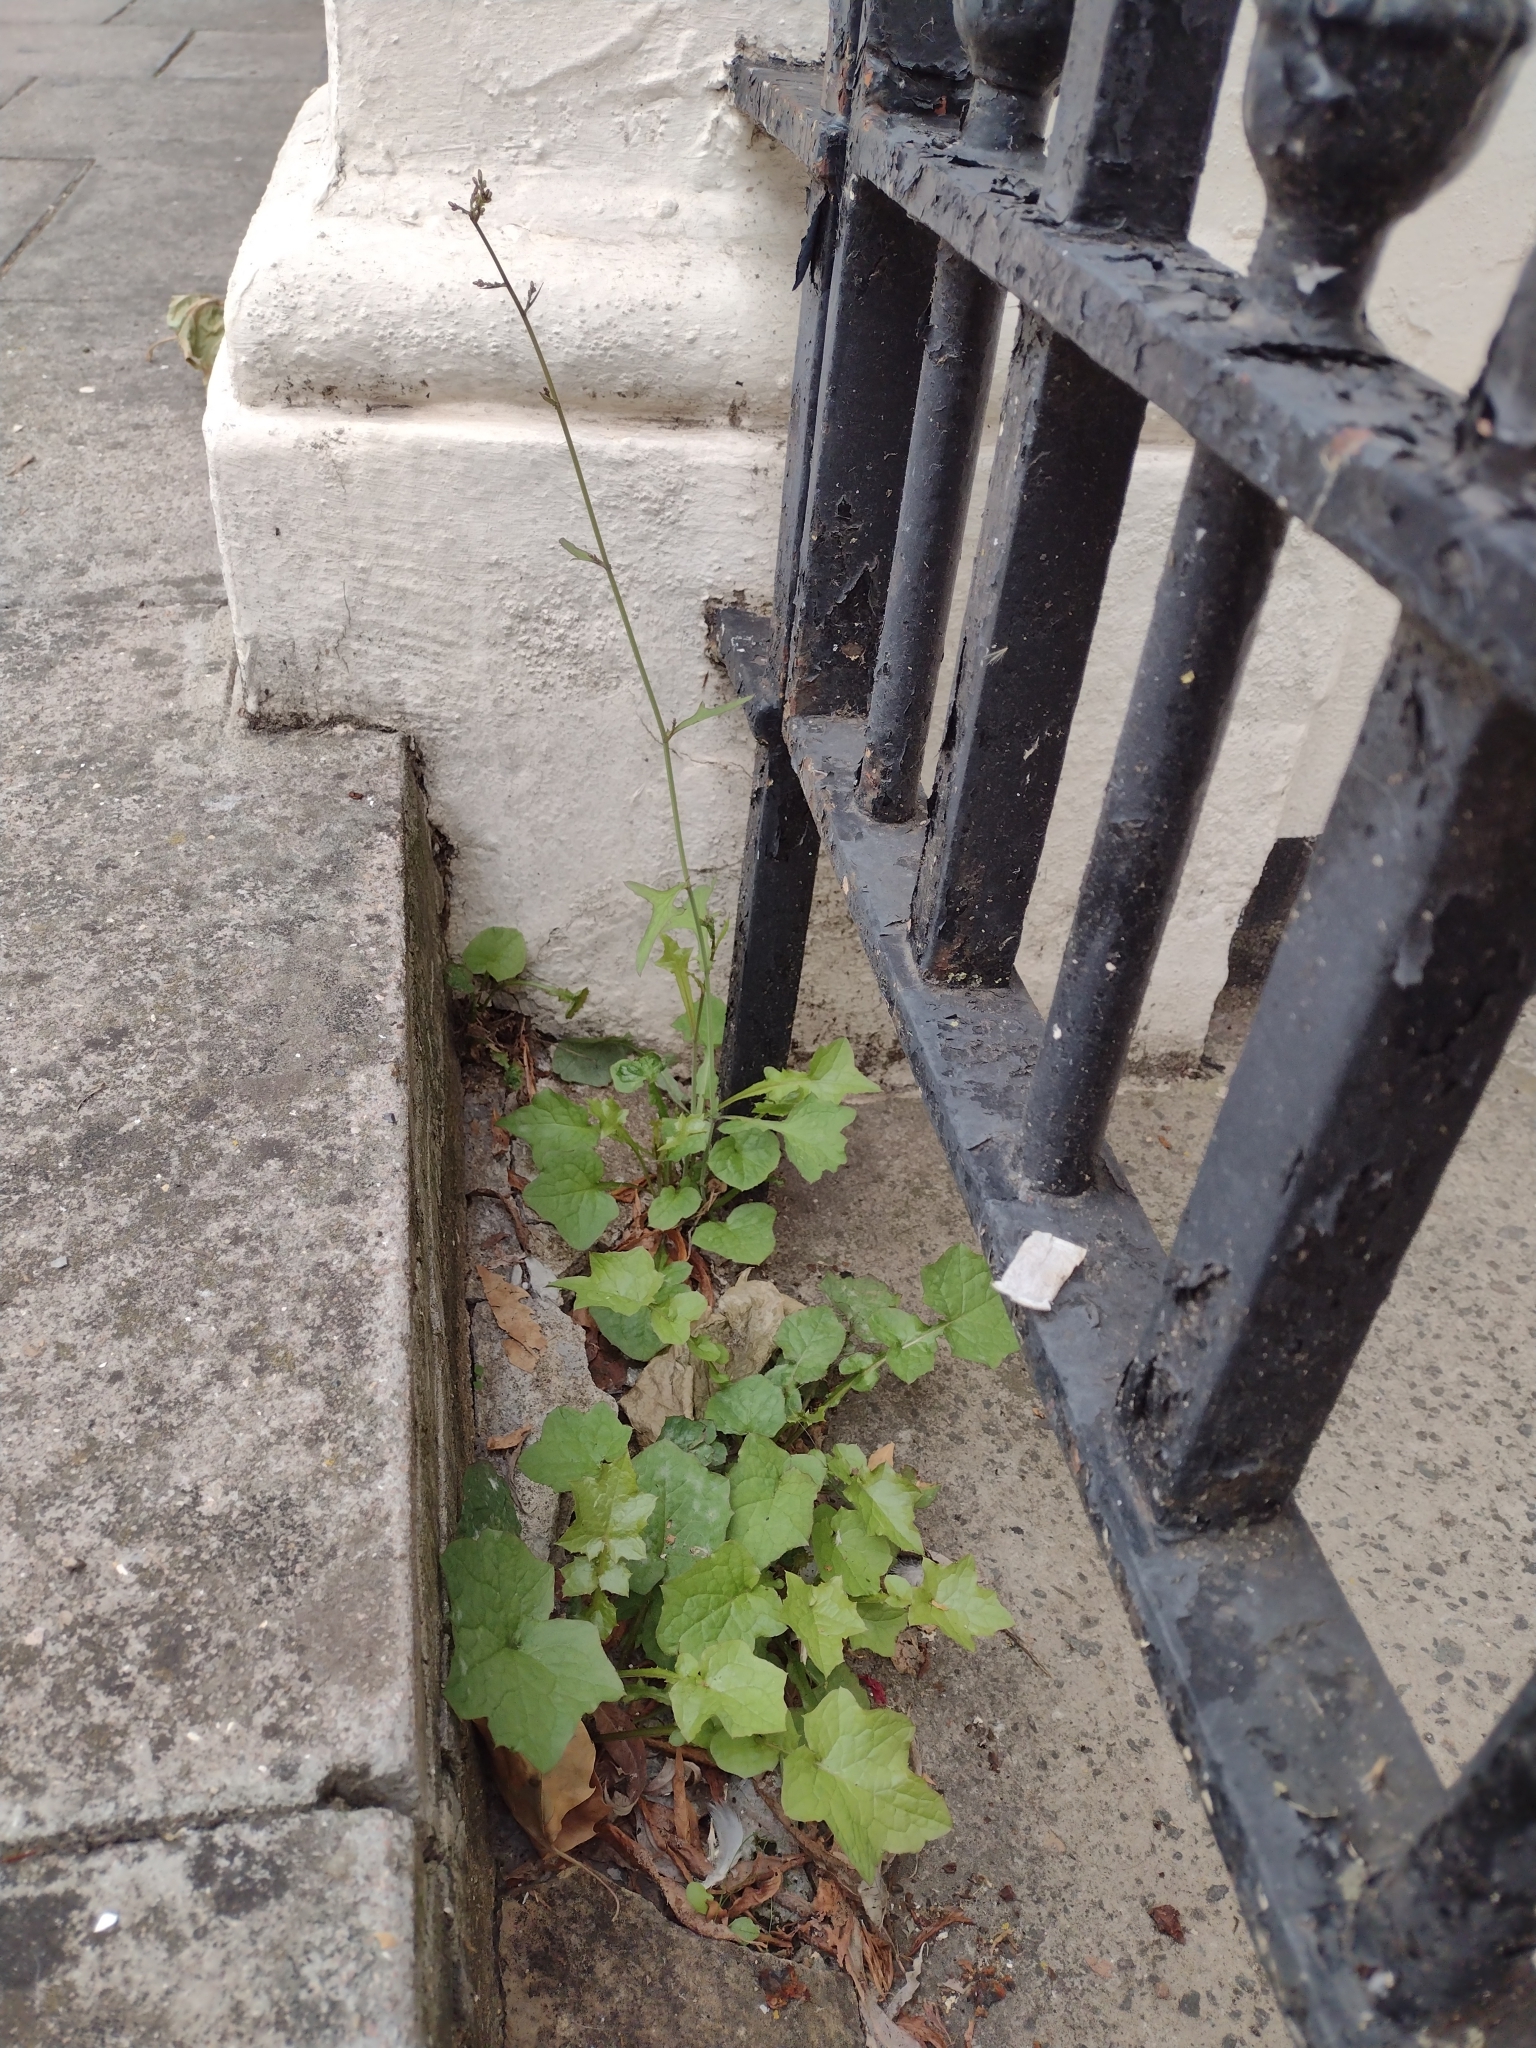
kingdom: Plantae
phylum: Tracheophyta
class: Magnoliopsida
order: Asterales
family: Asteraceae
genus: Mycelis
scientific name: Mycelis muralis
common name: Wall lettuce
